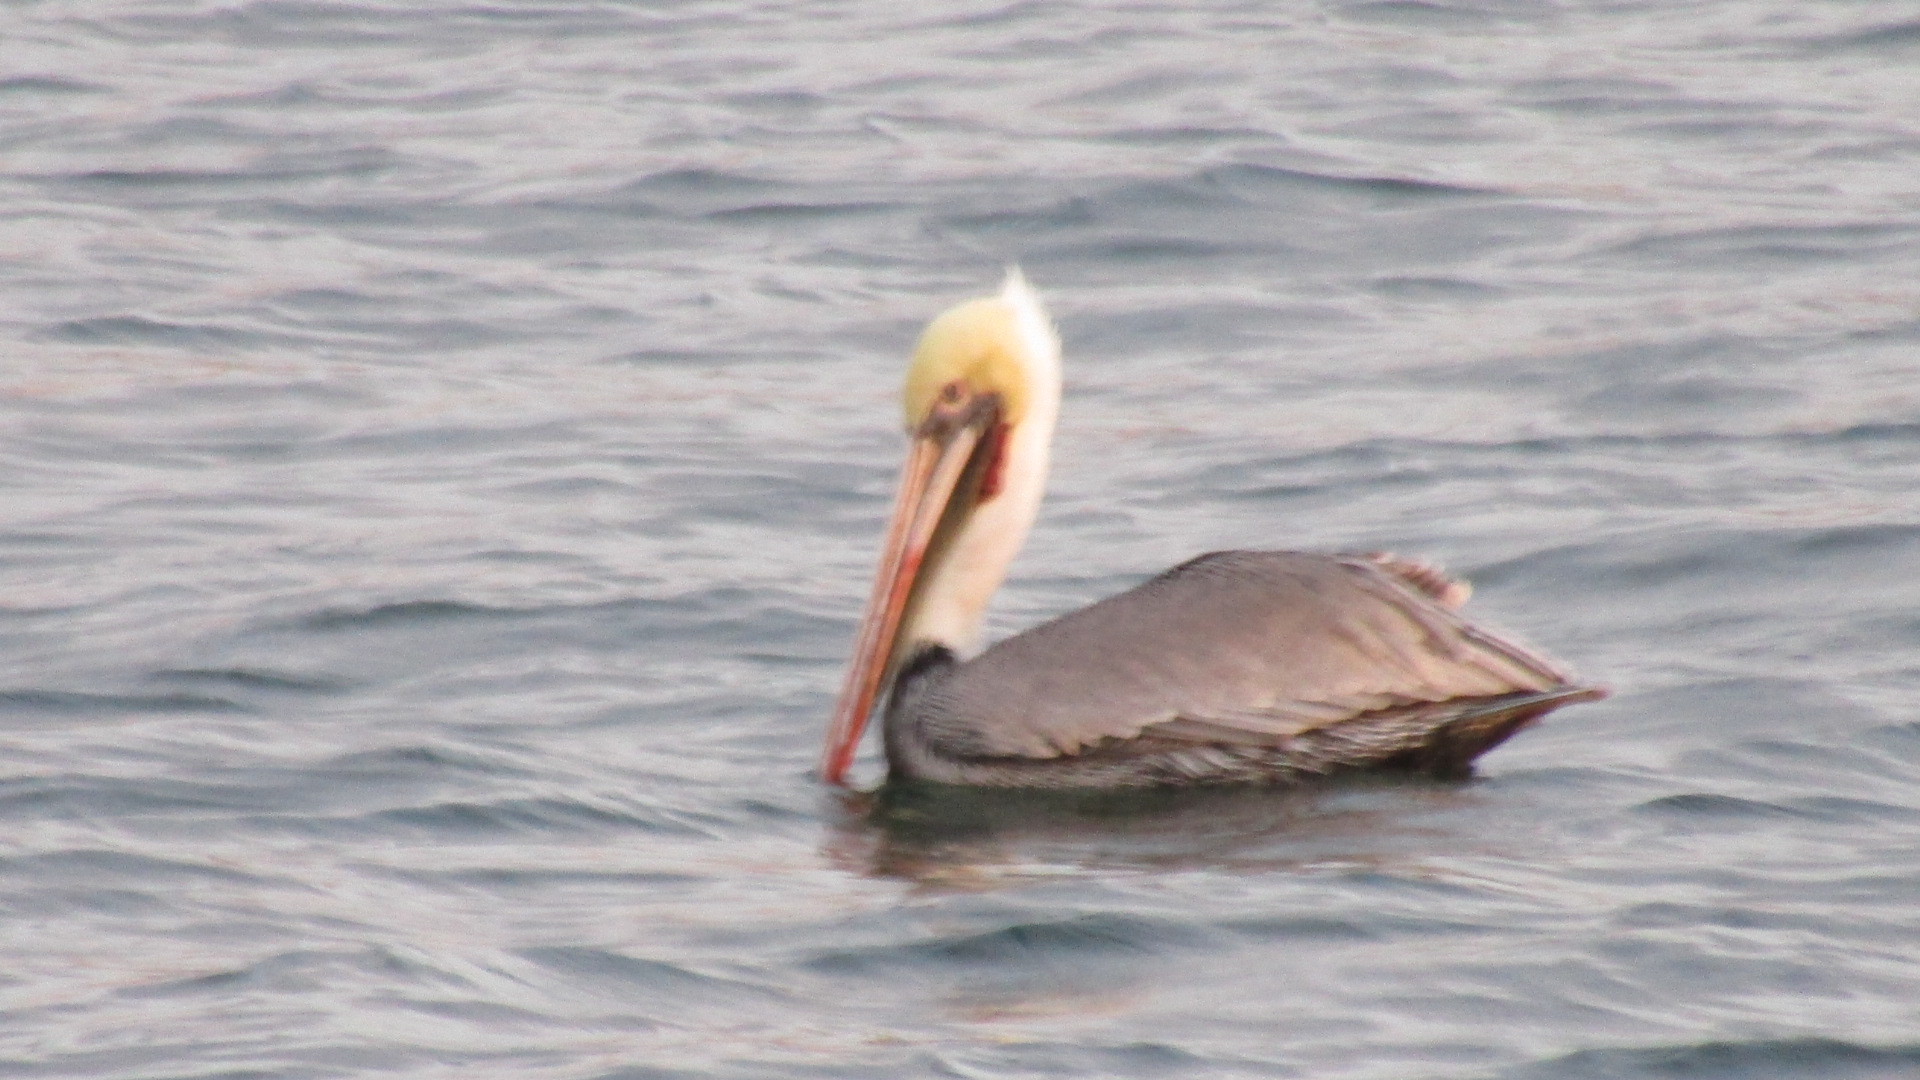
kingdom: Animalia
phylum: Chordata
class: Aves
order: Pelecaniformes
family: Pelecanidae
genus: Pelecanus
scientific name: Pelecanus occidentalis
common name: Brown pelican
